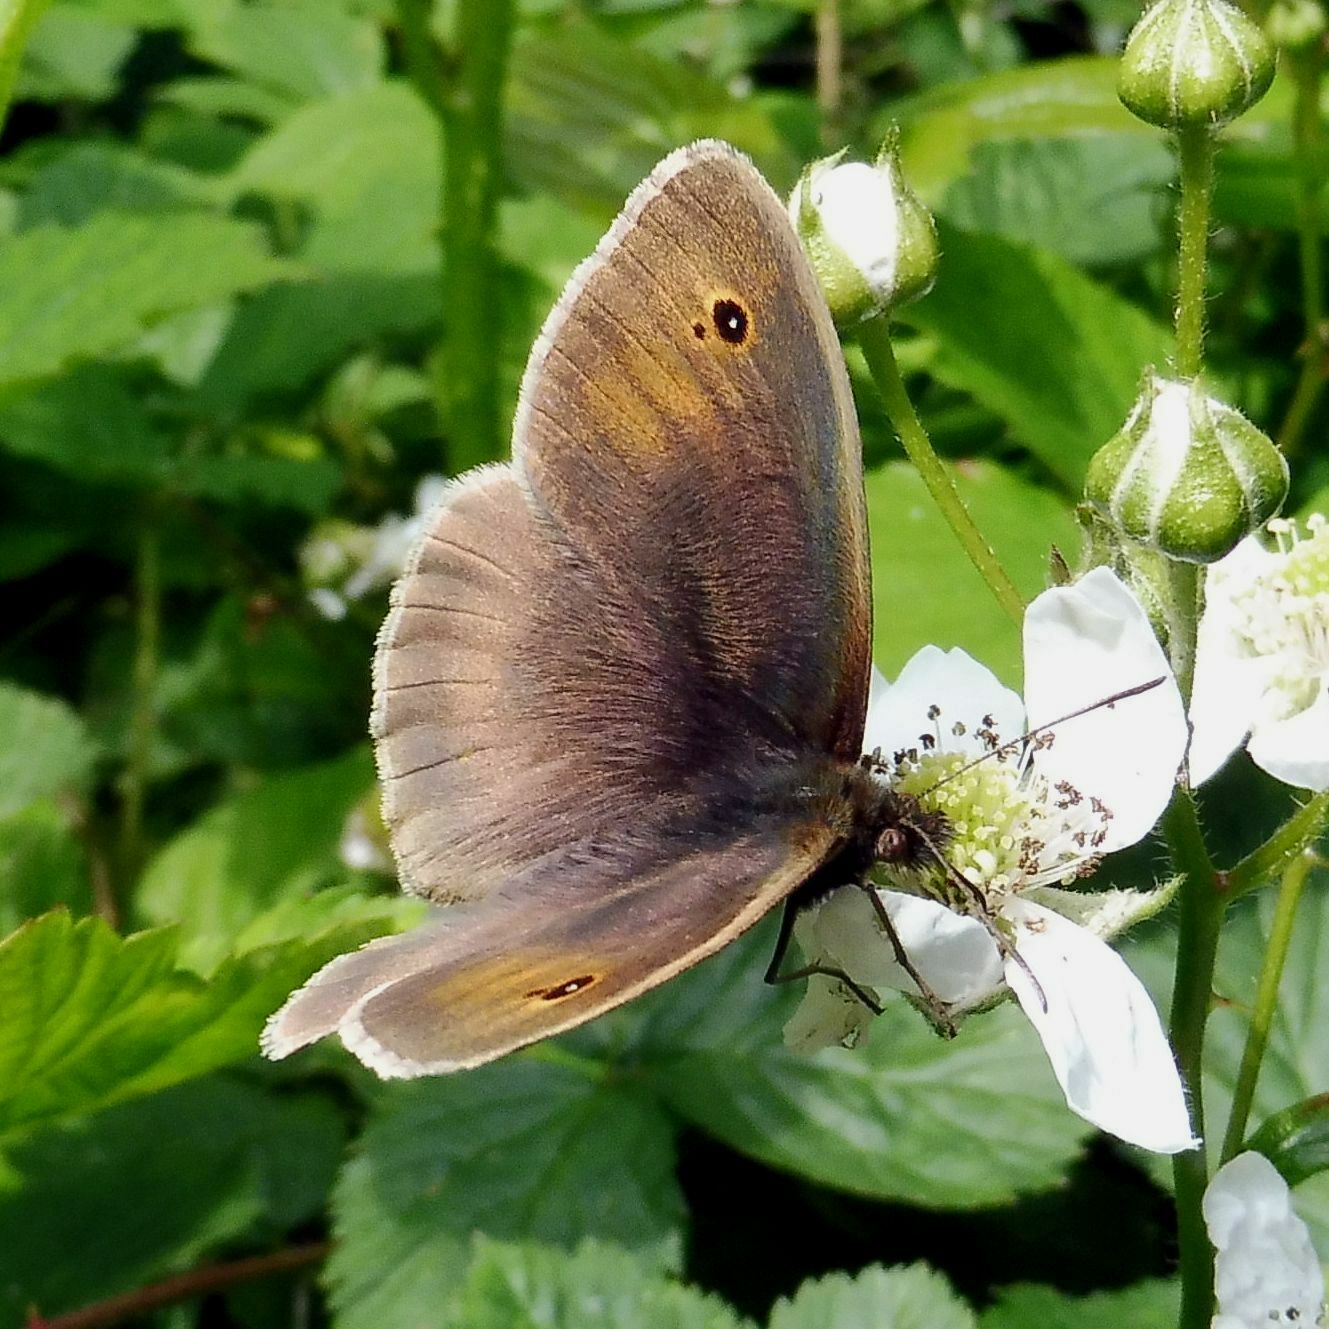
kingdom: Animalia
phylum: Arthropoda
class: Insecta
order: Lepidoptera
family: Nymphalidae
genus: Maniola
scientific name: Maniola jurtina
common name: Meadow brown
